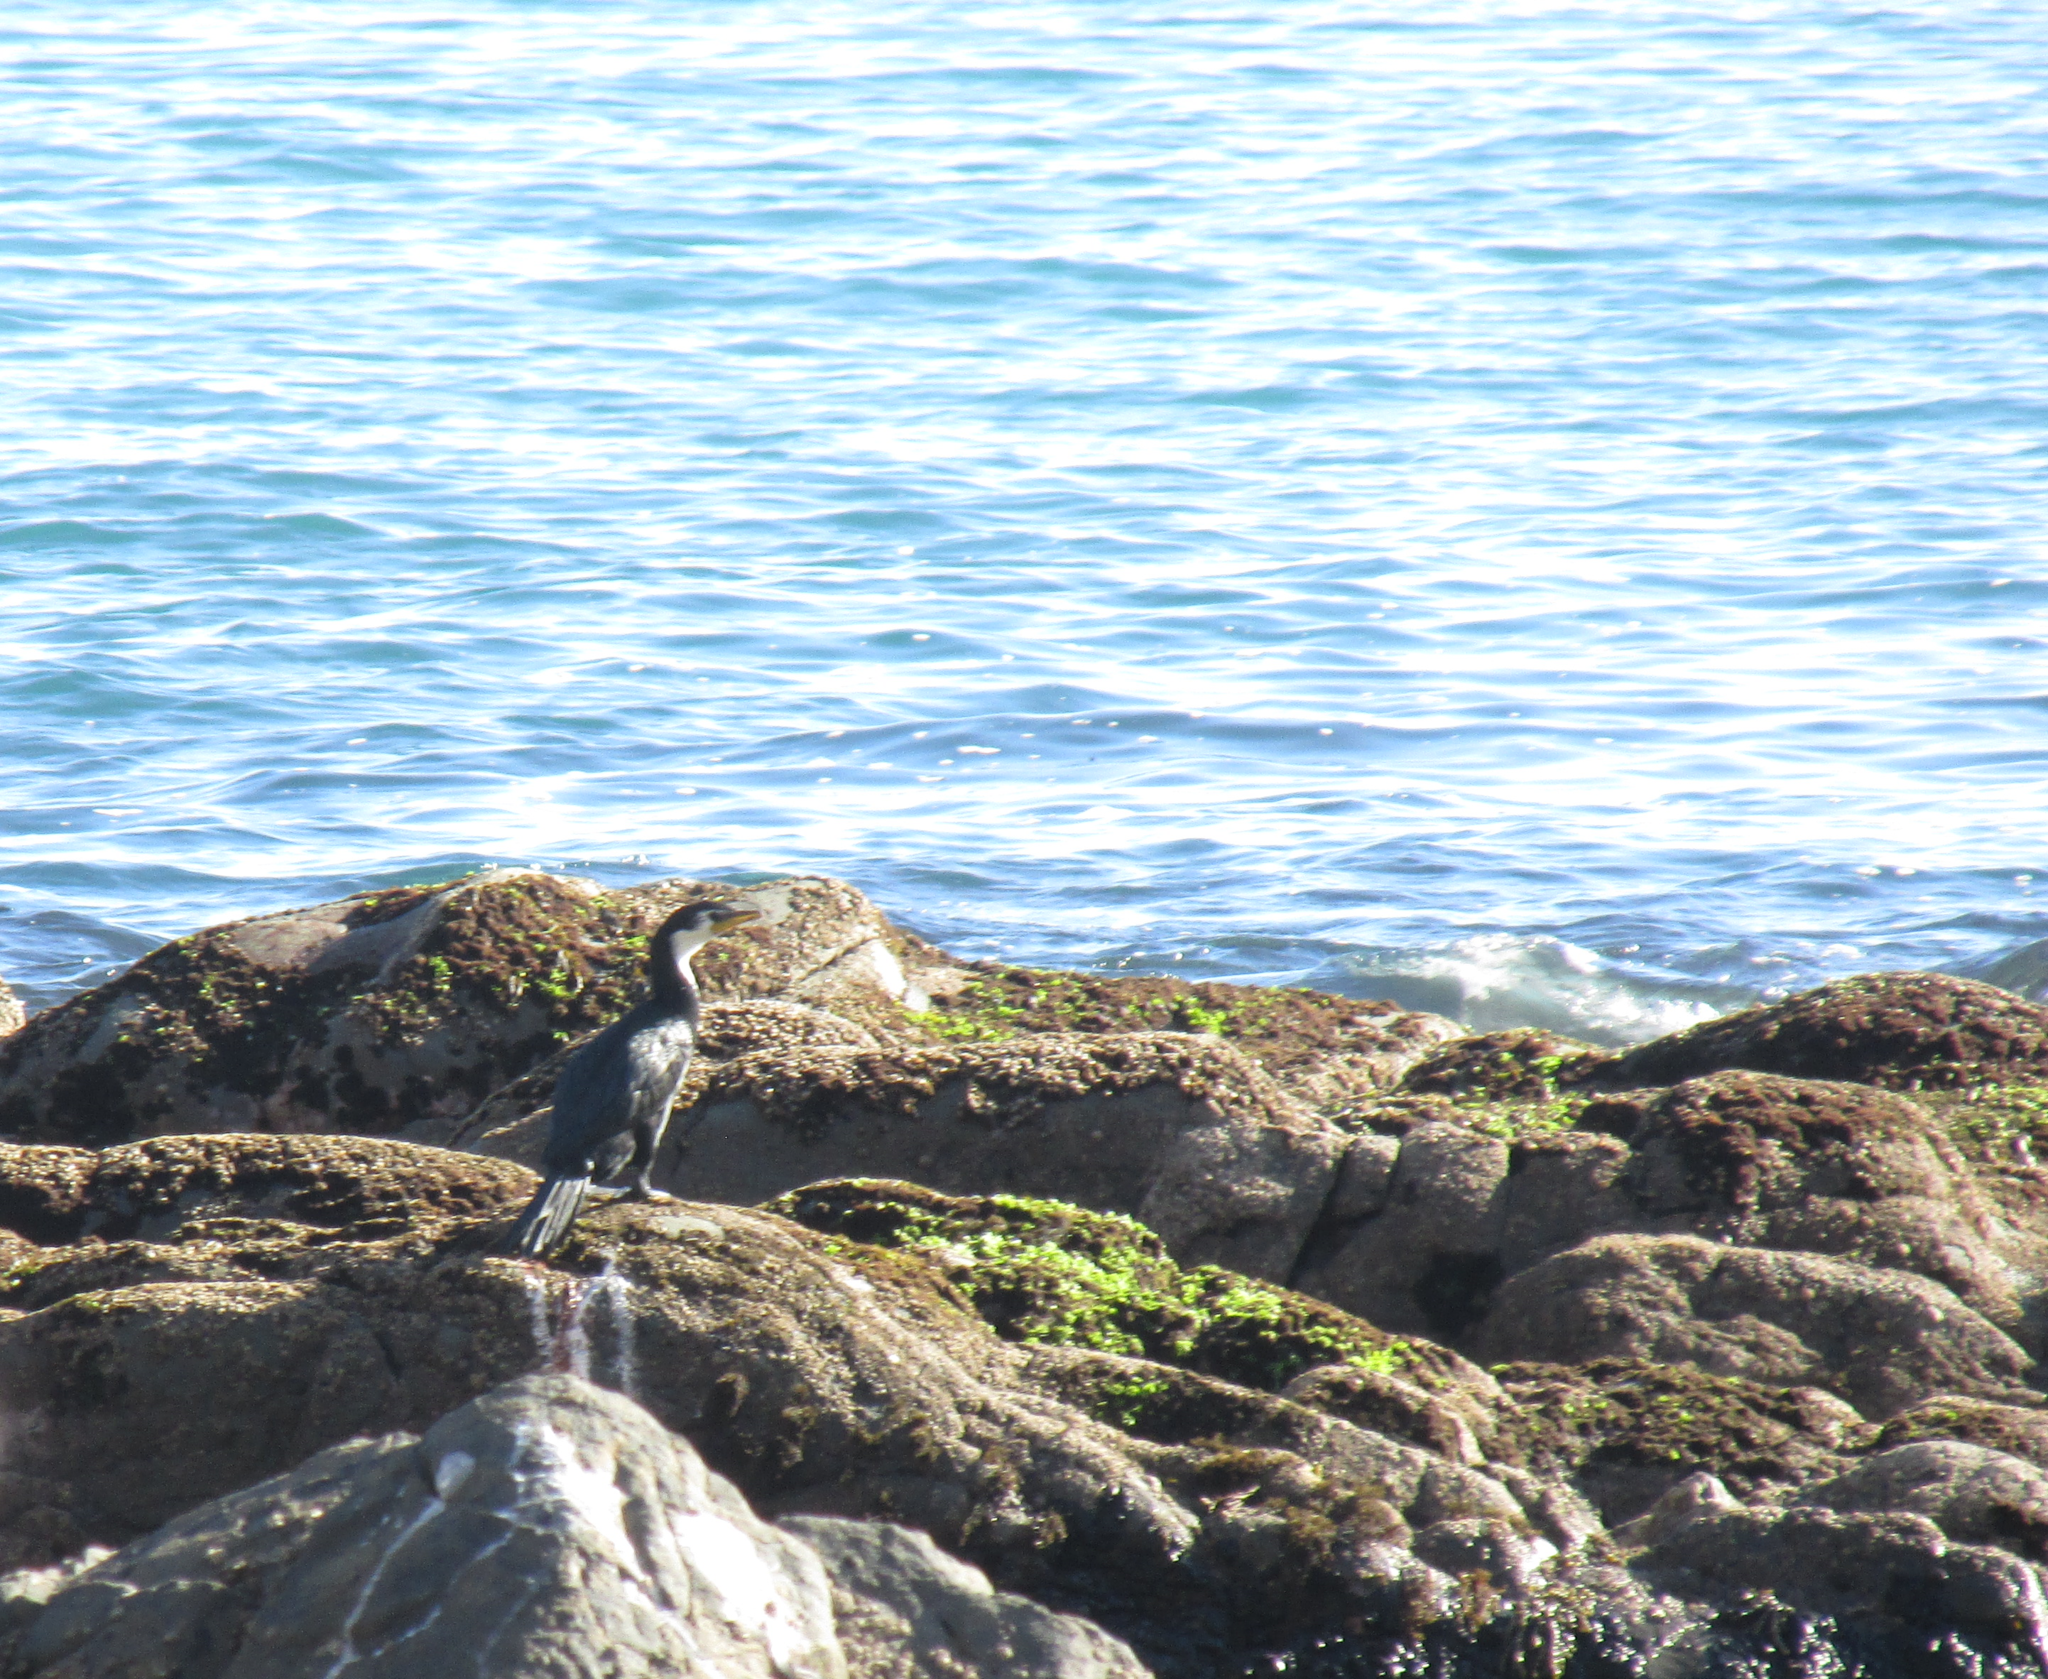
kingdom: Animalia
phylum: Chordata
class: Aves
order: Suliformes
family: Phalacrocoracidae
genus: Microcarbo
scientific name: Microcarbo melanoleucos
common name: Little pied cormorant
